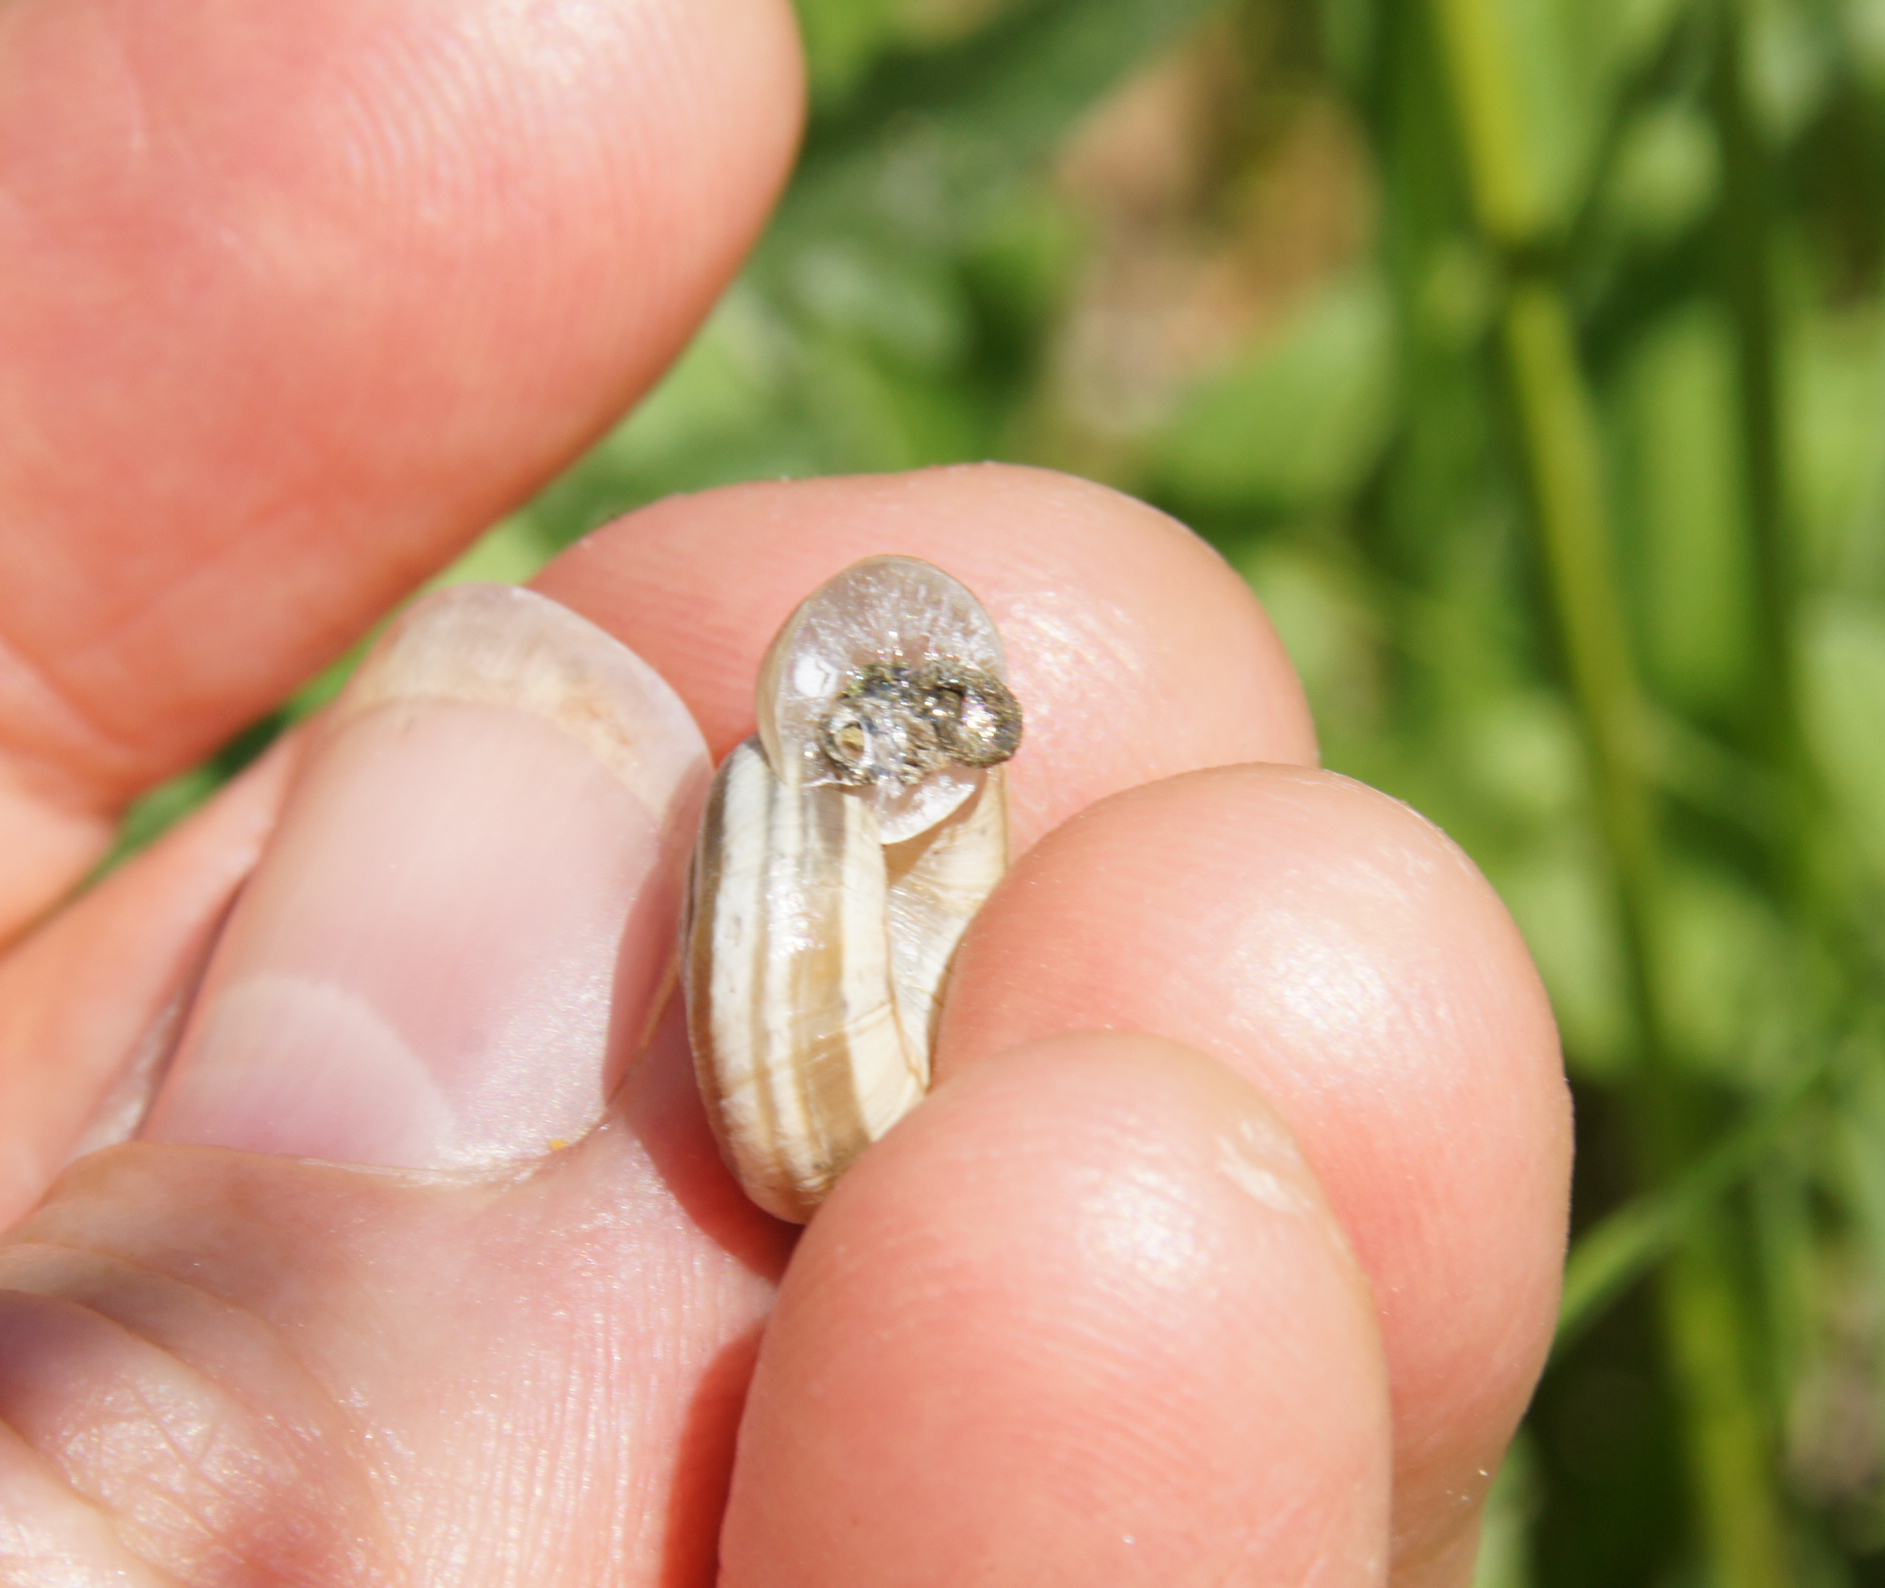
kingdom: Animalia
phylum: Mollusca
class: Gastropoda
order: Stylommatophora
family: Geomitridae
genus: Helicella
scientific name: Helicella itala
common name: Heath snail
